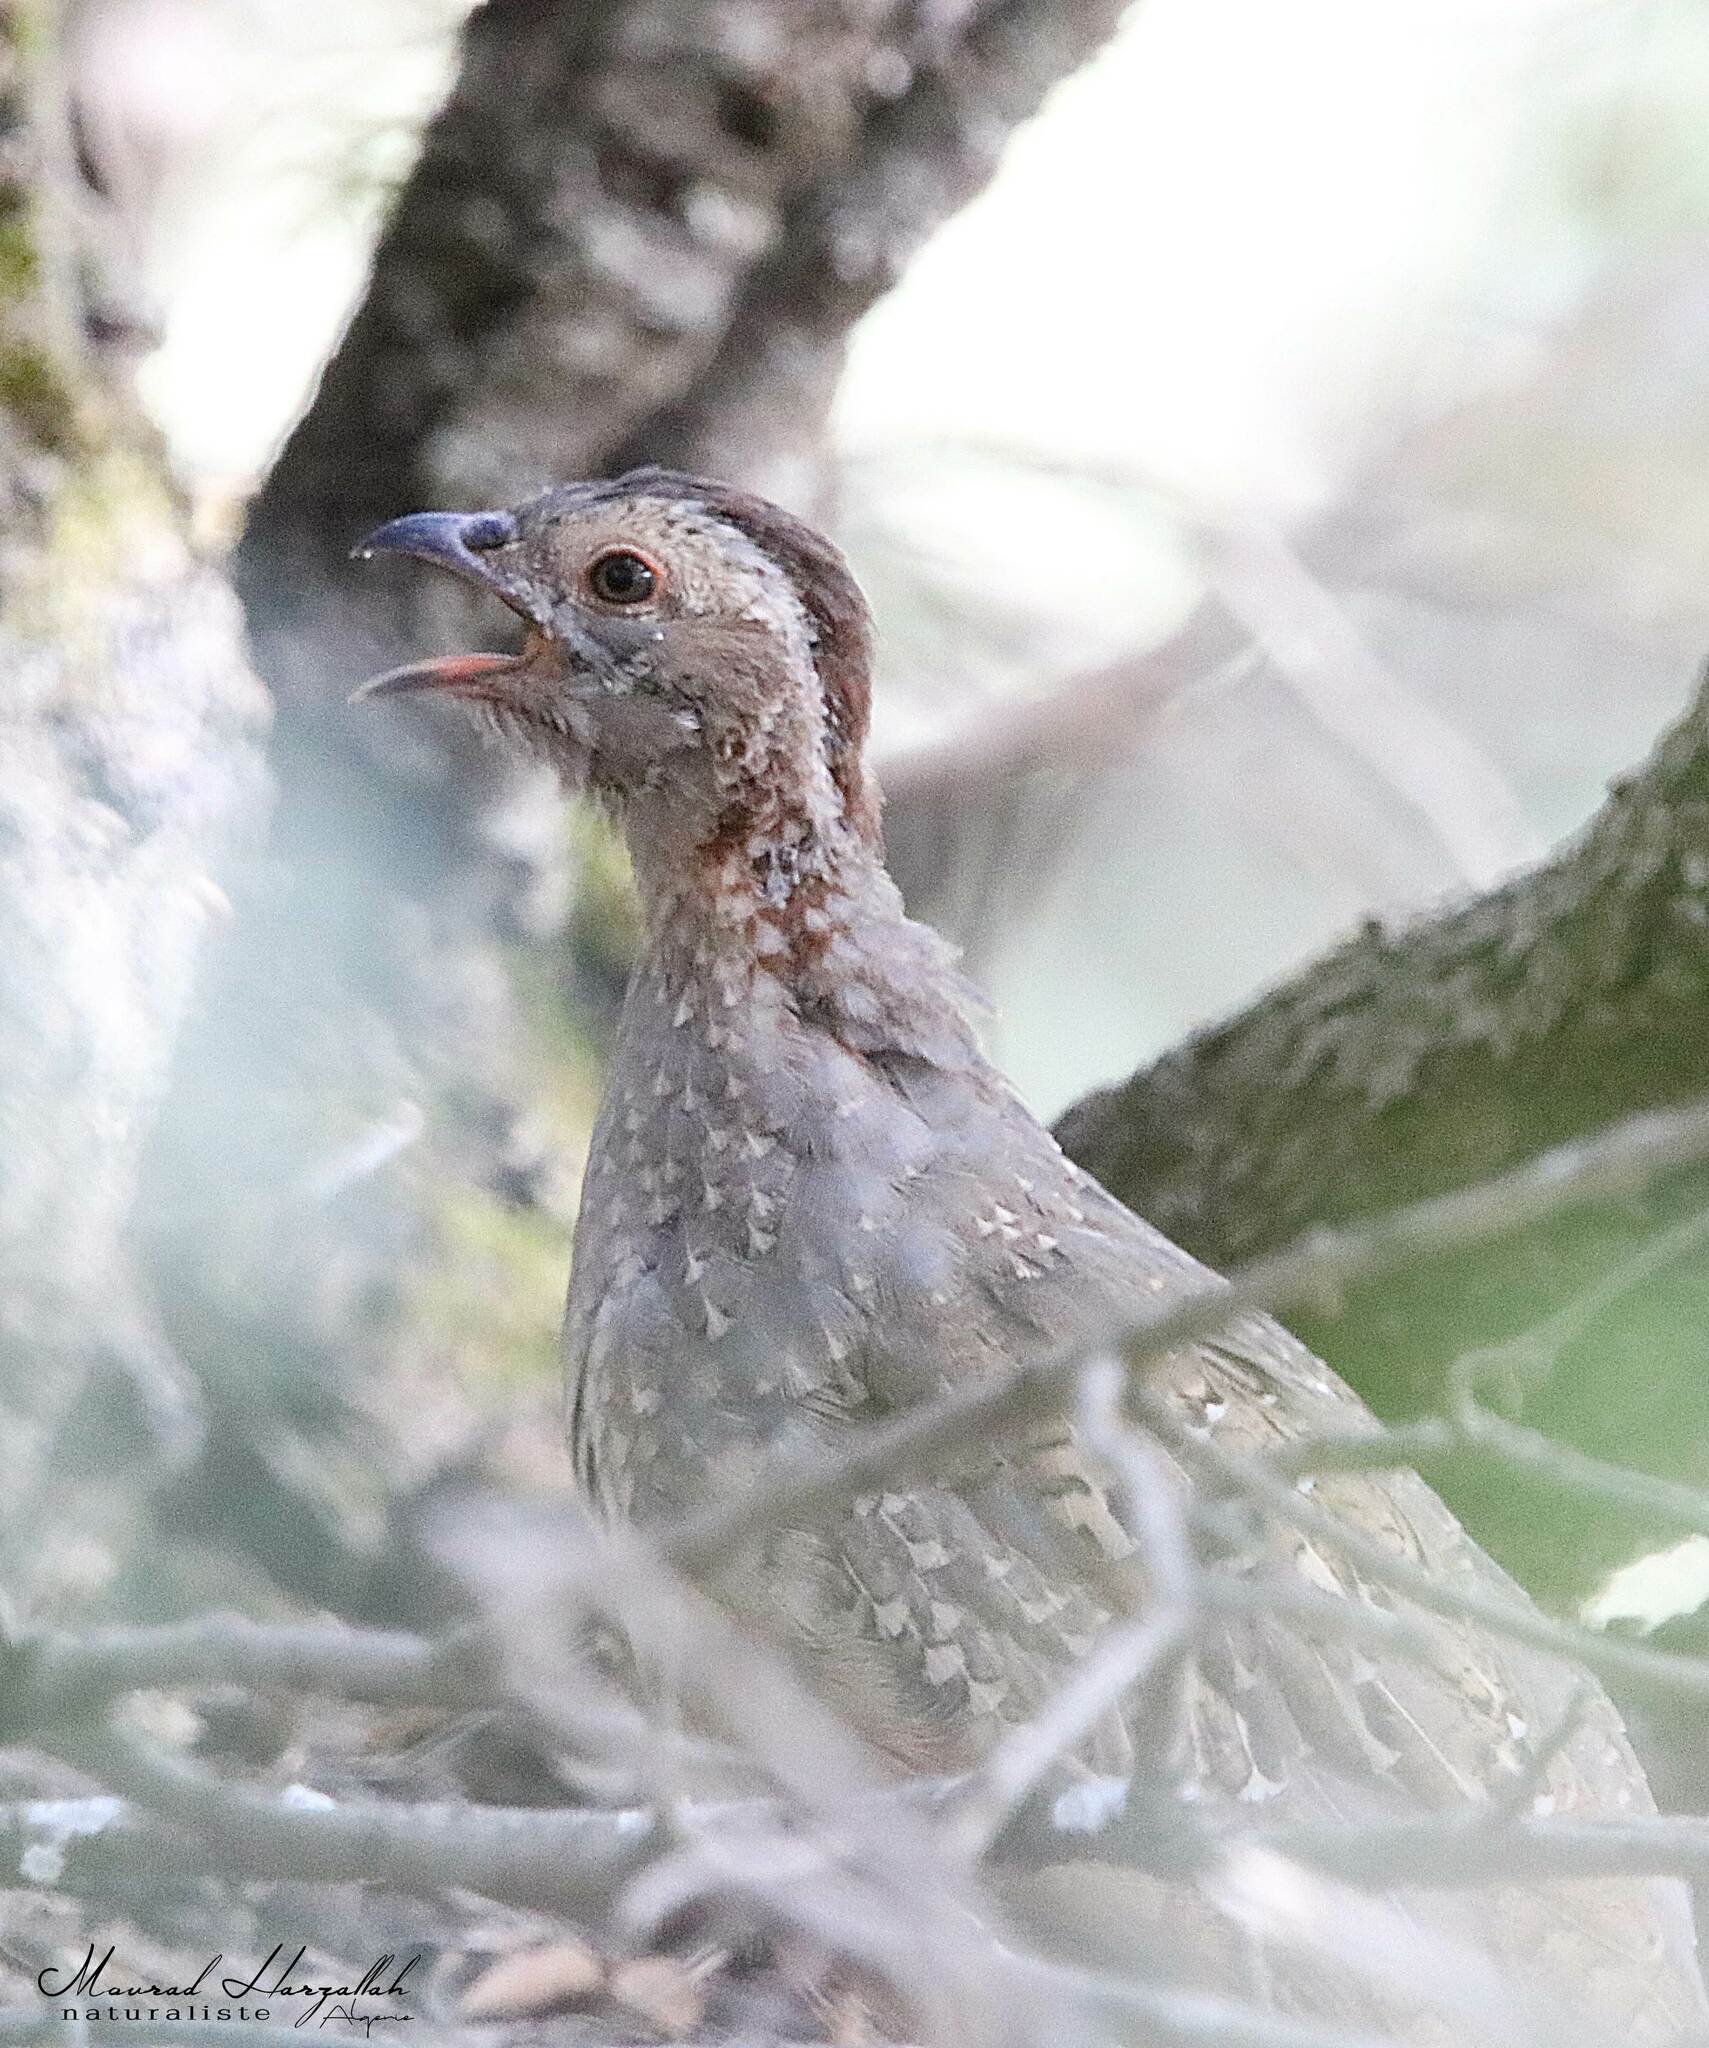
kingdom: Animalia
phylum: Chordata
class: Aves
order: Galliformes
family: Phasianidae
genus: Alectoris
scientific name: Alectoris barbara
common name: Barbary partridge
